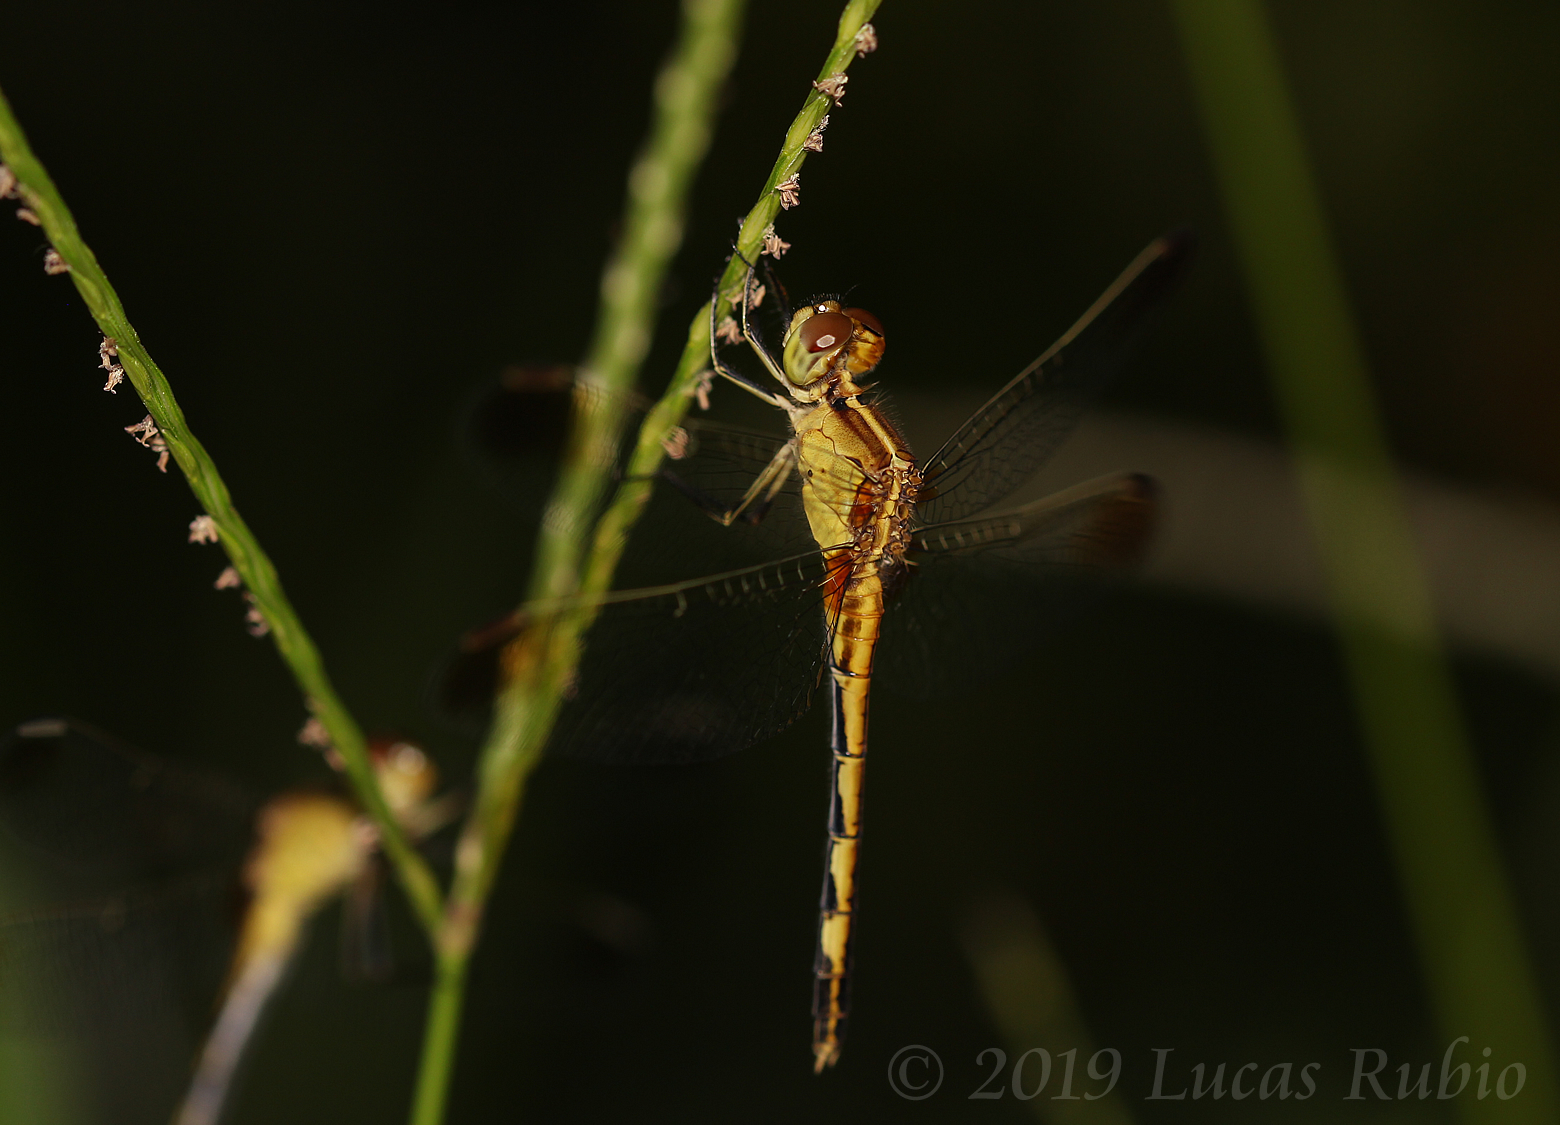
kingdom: Animalia
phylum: Arthropoda
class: Insecta
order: Odonata
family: Libellulidae
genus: Erythrodiplax
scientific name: Erythrodiplax nigricans
